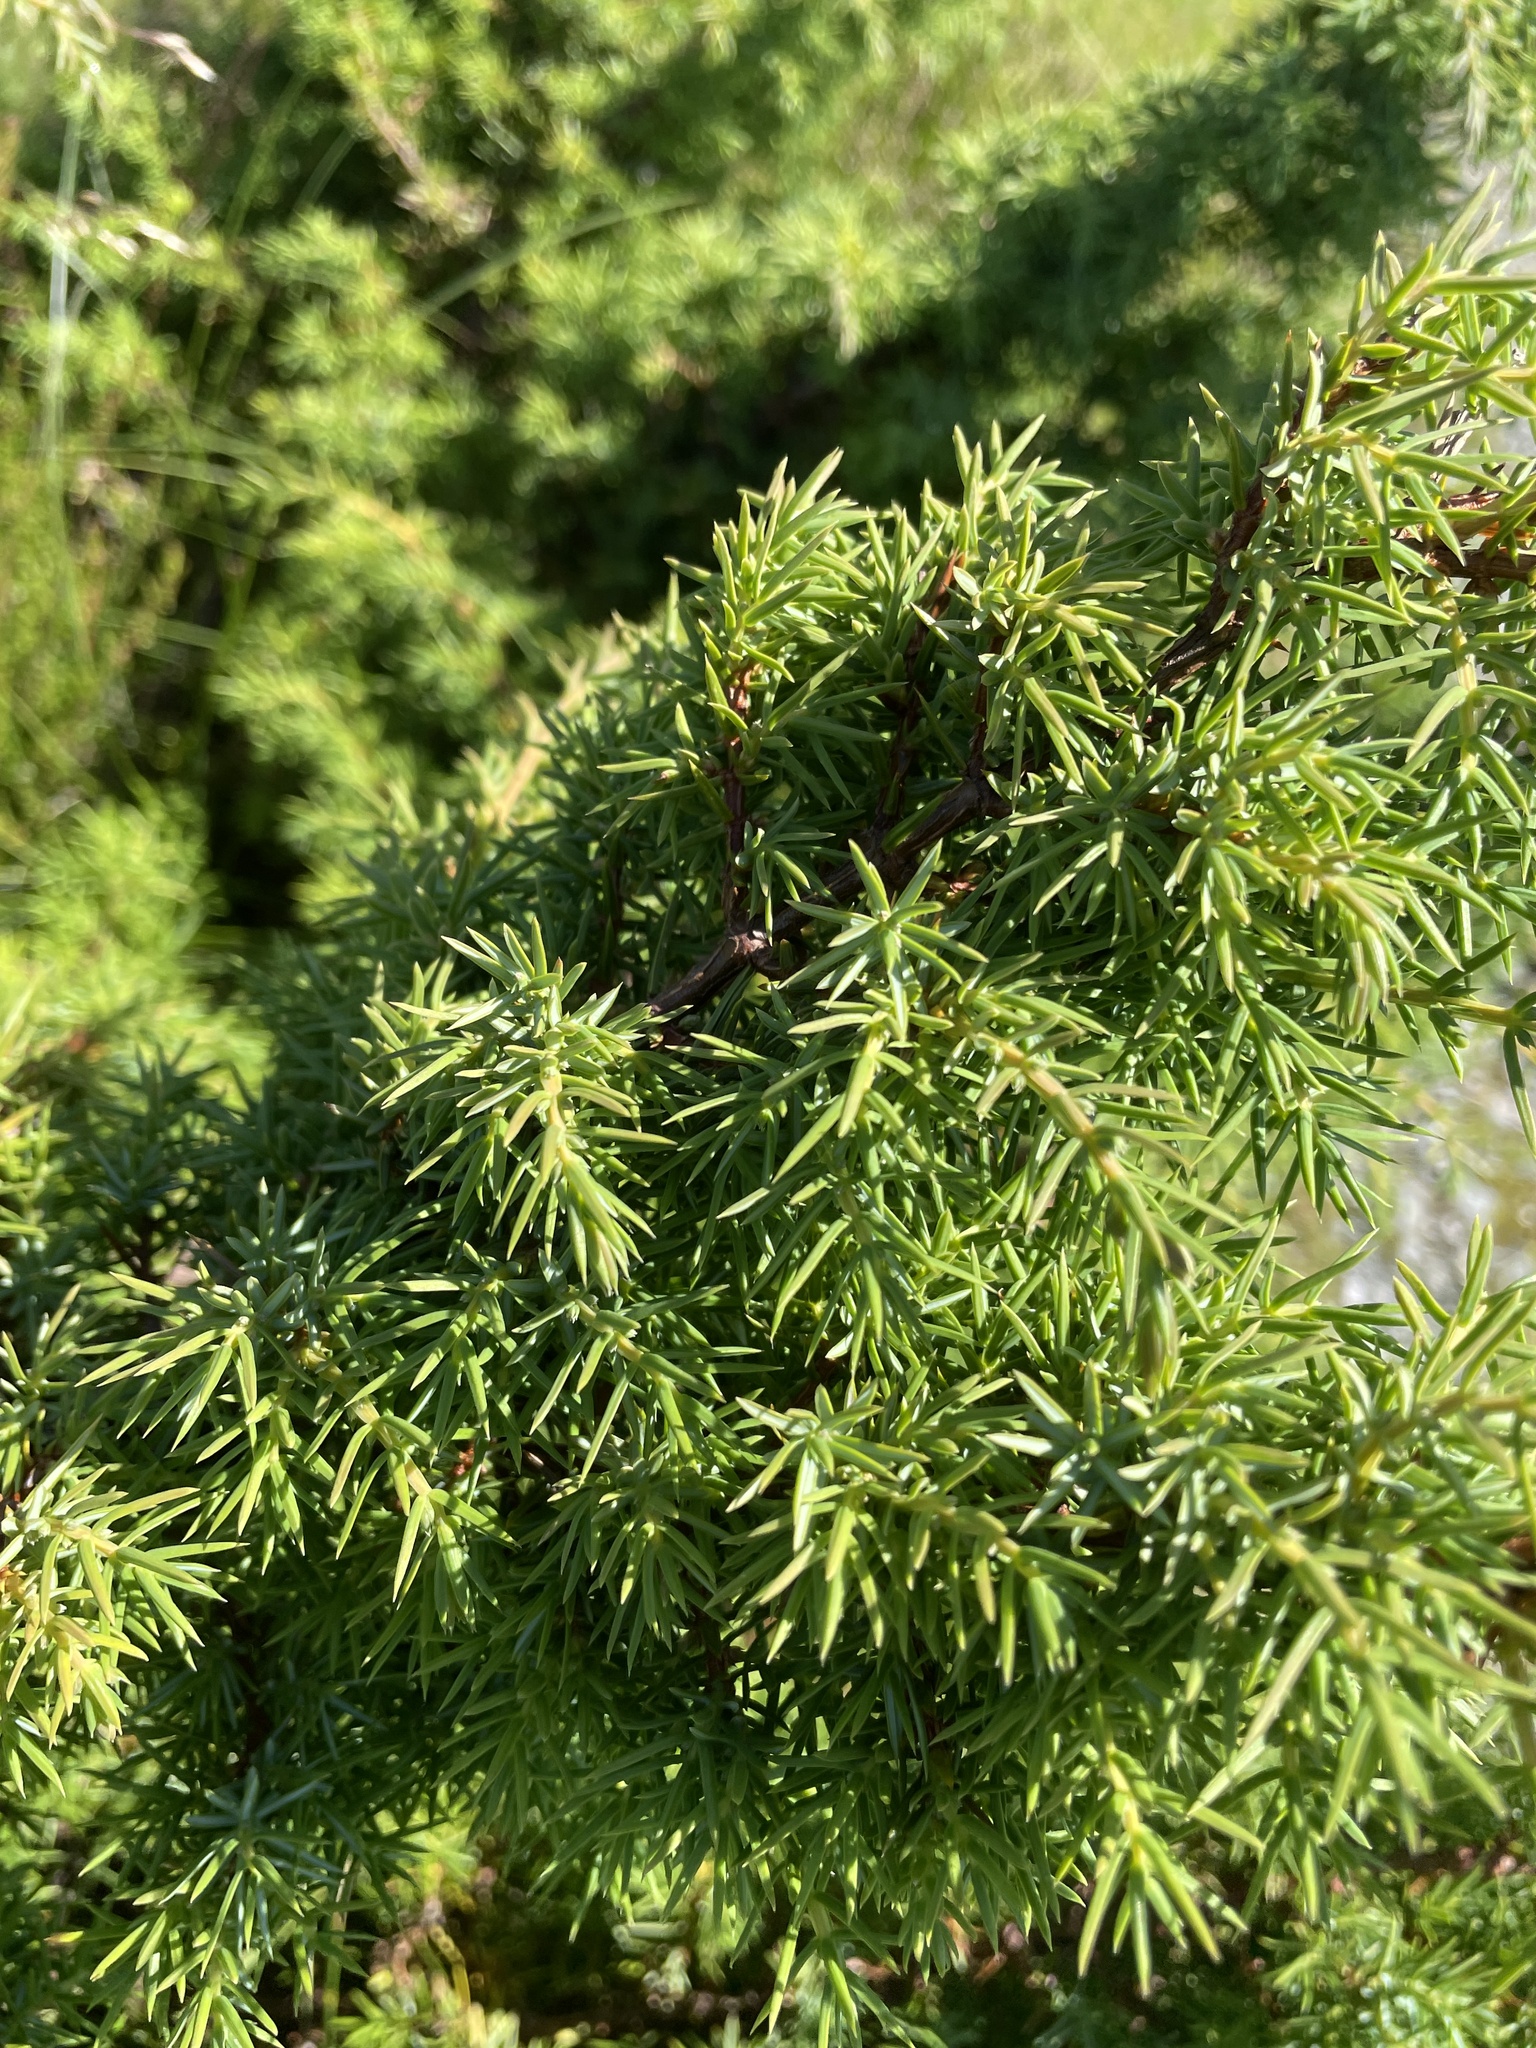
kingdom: Plantae
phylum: Tracheophyta
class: Pinopsida
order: Pinales
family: Cupressaceae
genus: Juniperus
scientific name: Juniperus communis
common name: Common juniper
